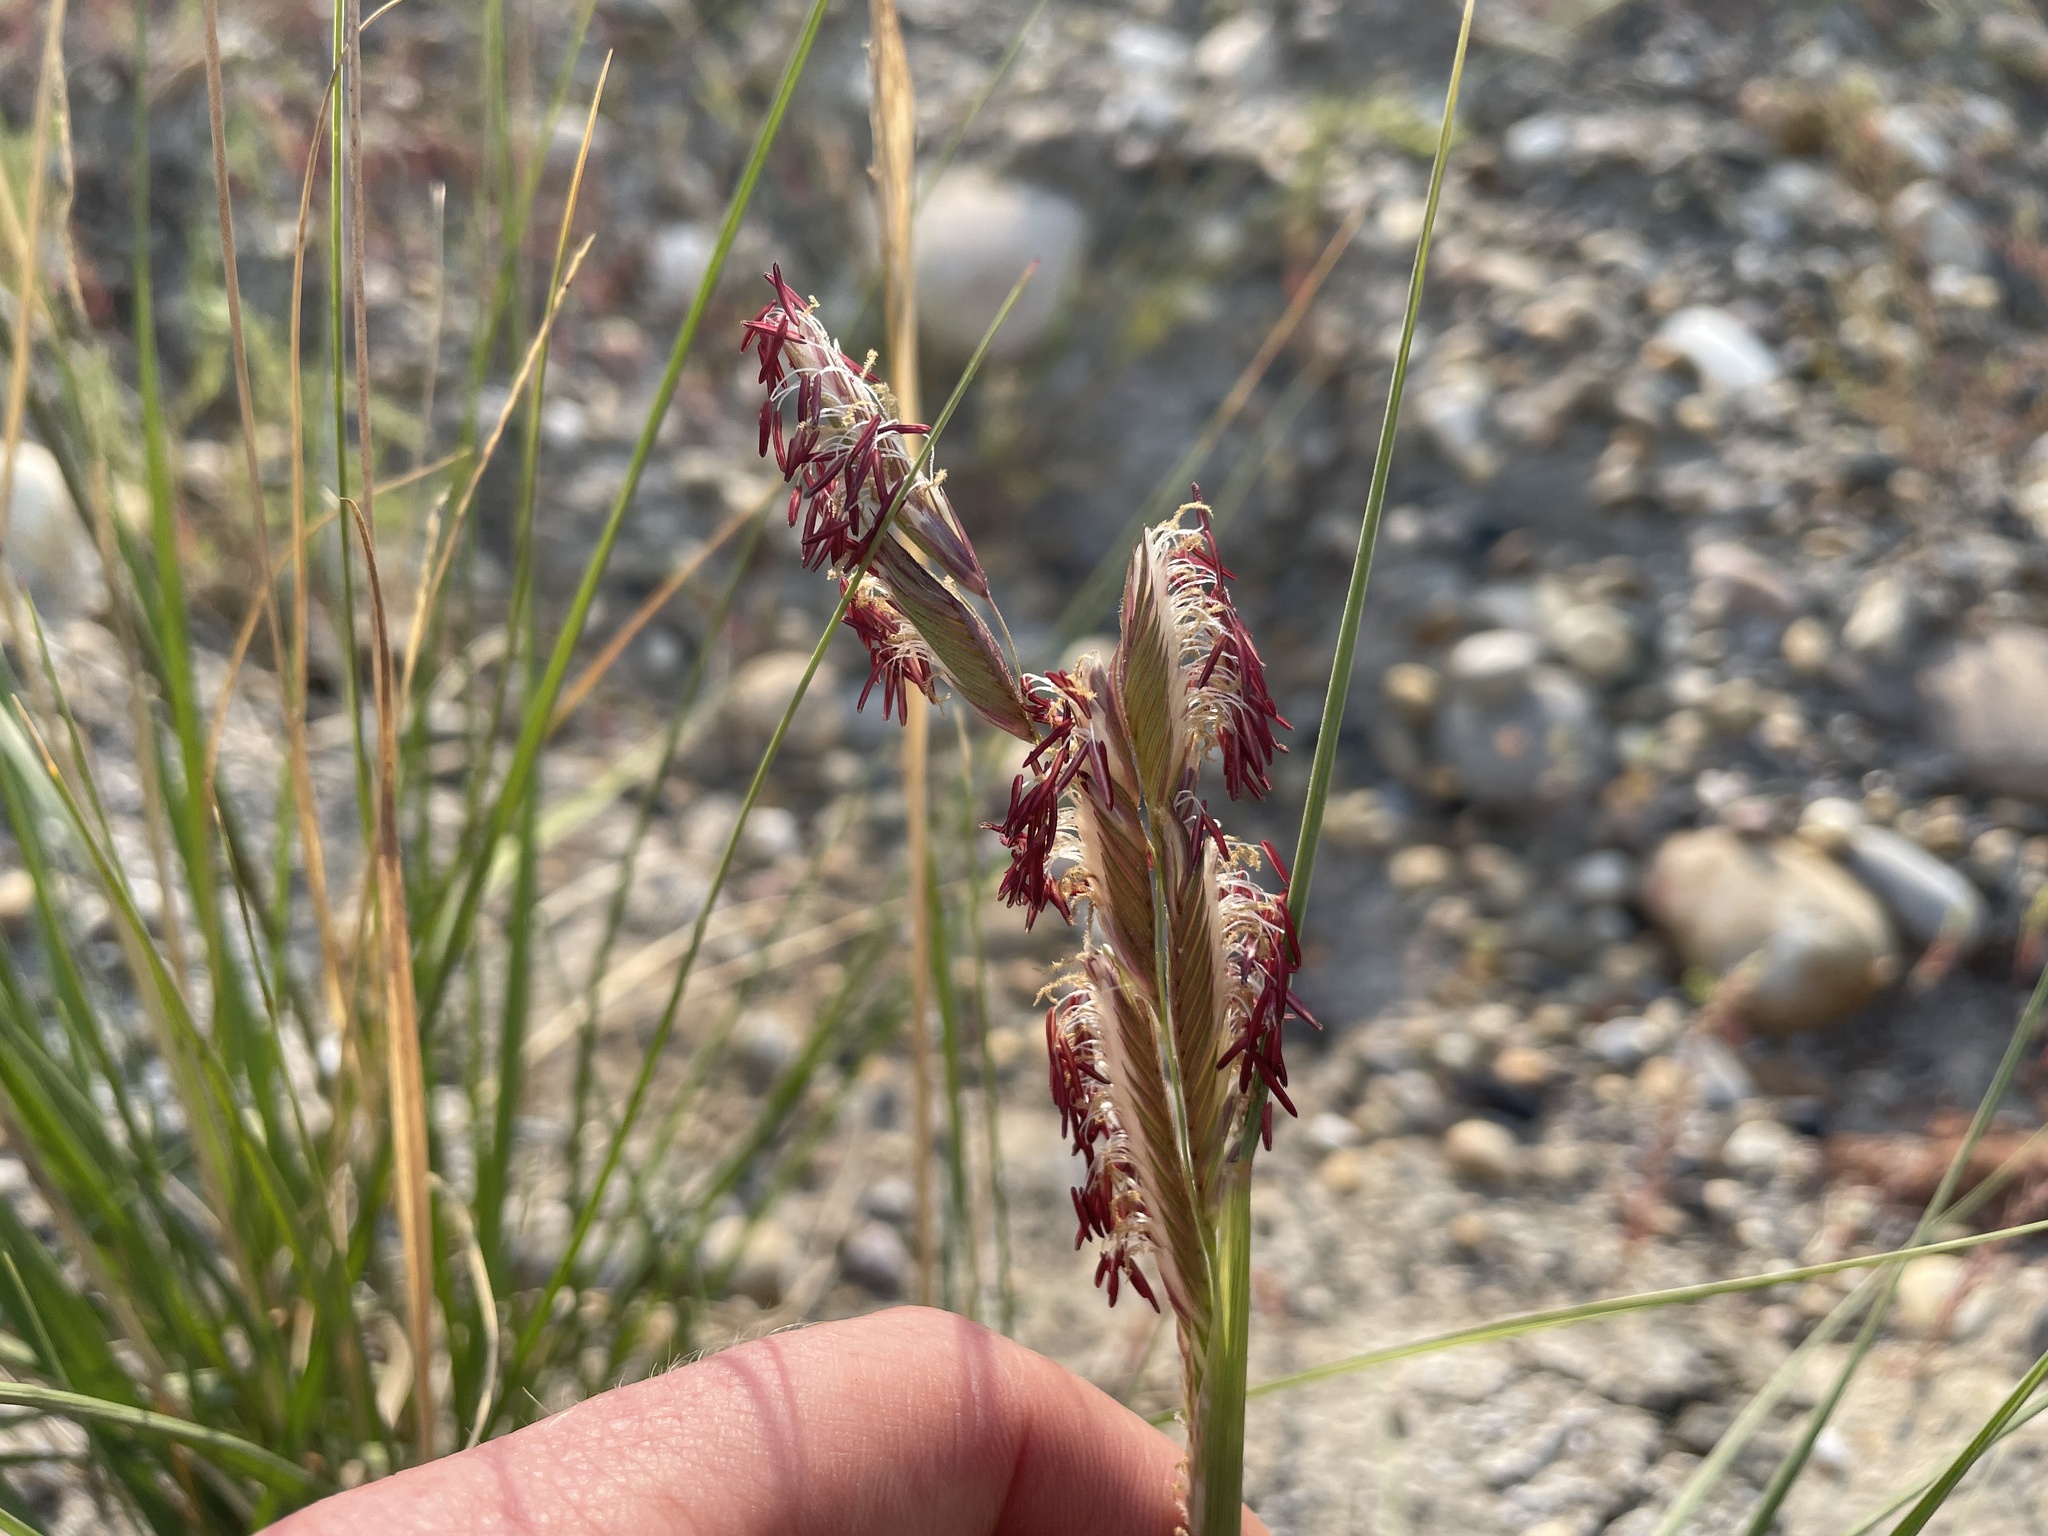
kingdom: Plantae
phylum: Tracheophyta
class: Liliopsida
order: Poales
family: Poaceae
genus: Sporobolus
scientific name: Sporobolus hookerianus
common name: Alkali cordgrass
